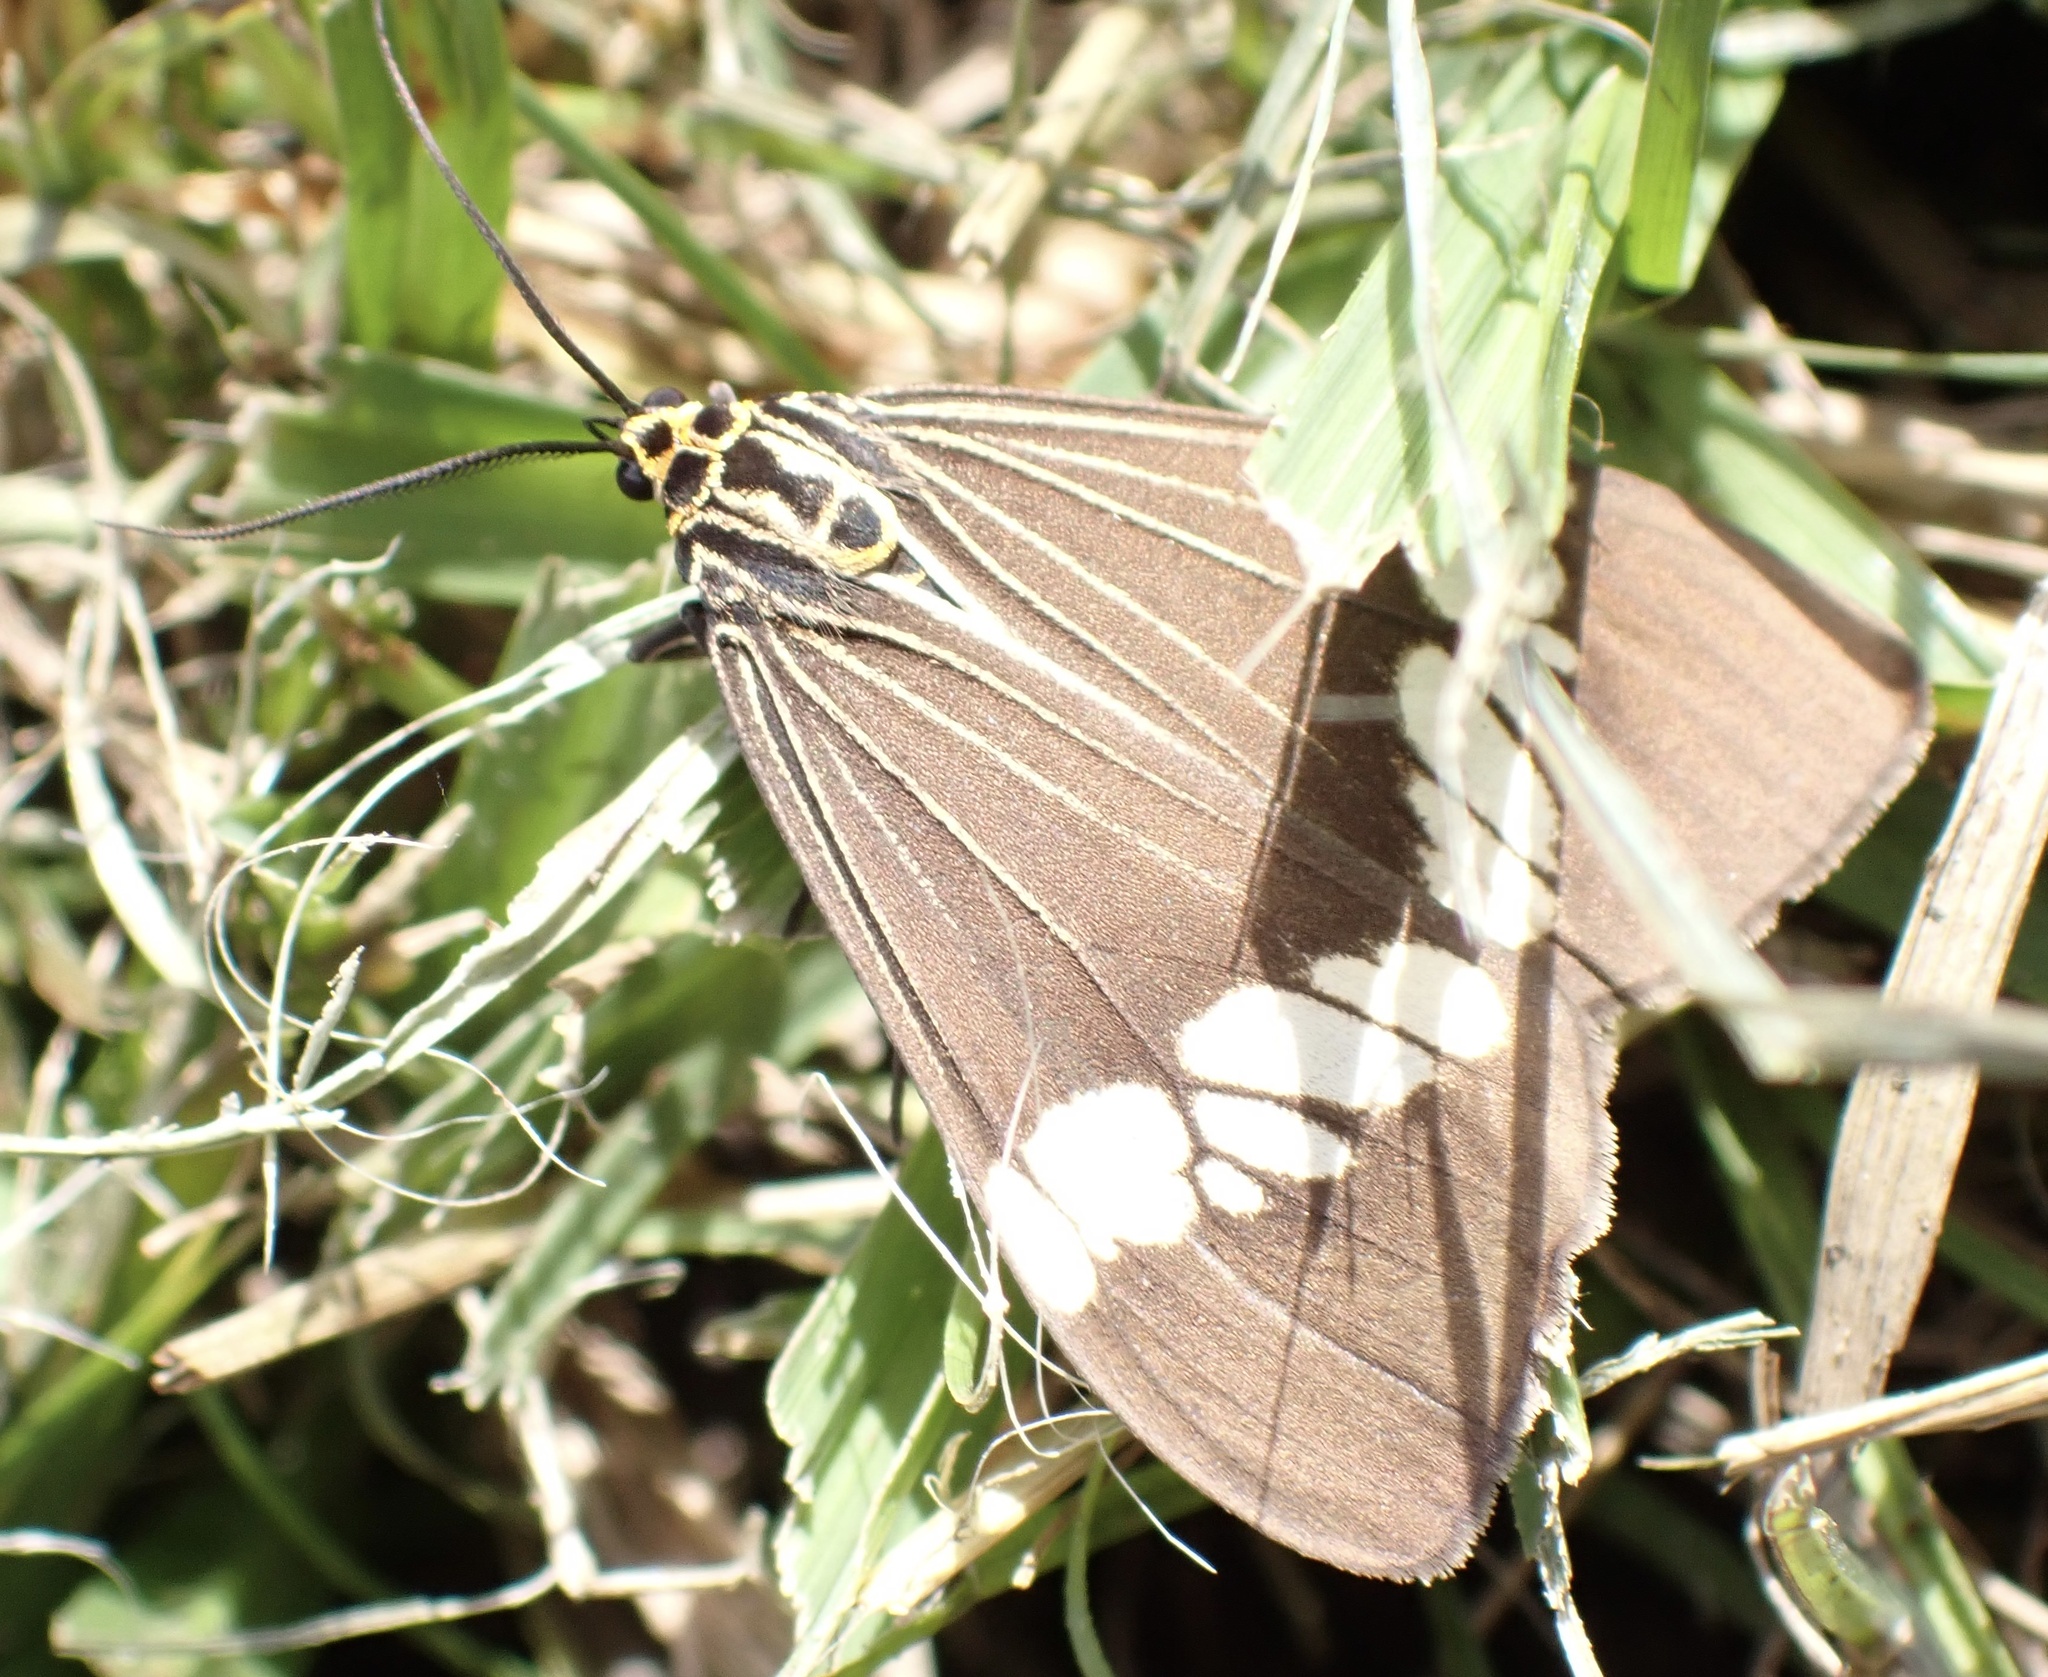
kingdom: Animalia
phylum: Arthropoda
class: Insecta
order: Lepidoptera
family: Erebidae
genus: Nyctemera
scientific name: Nyctemera baulus
